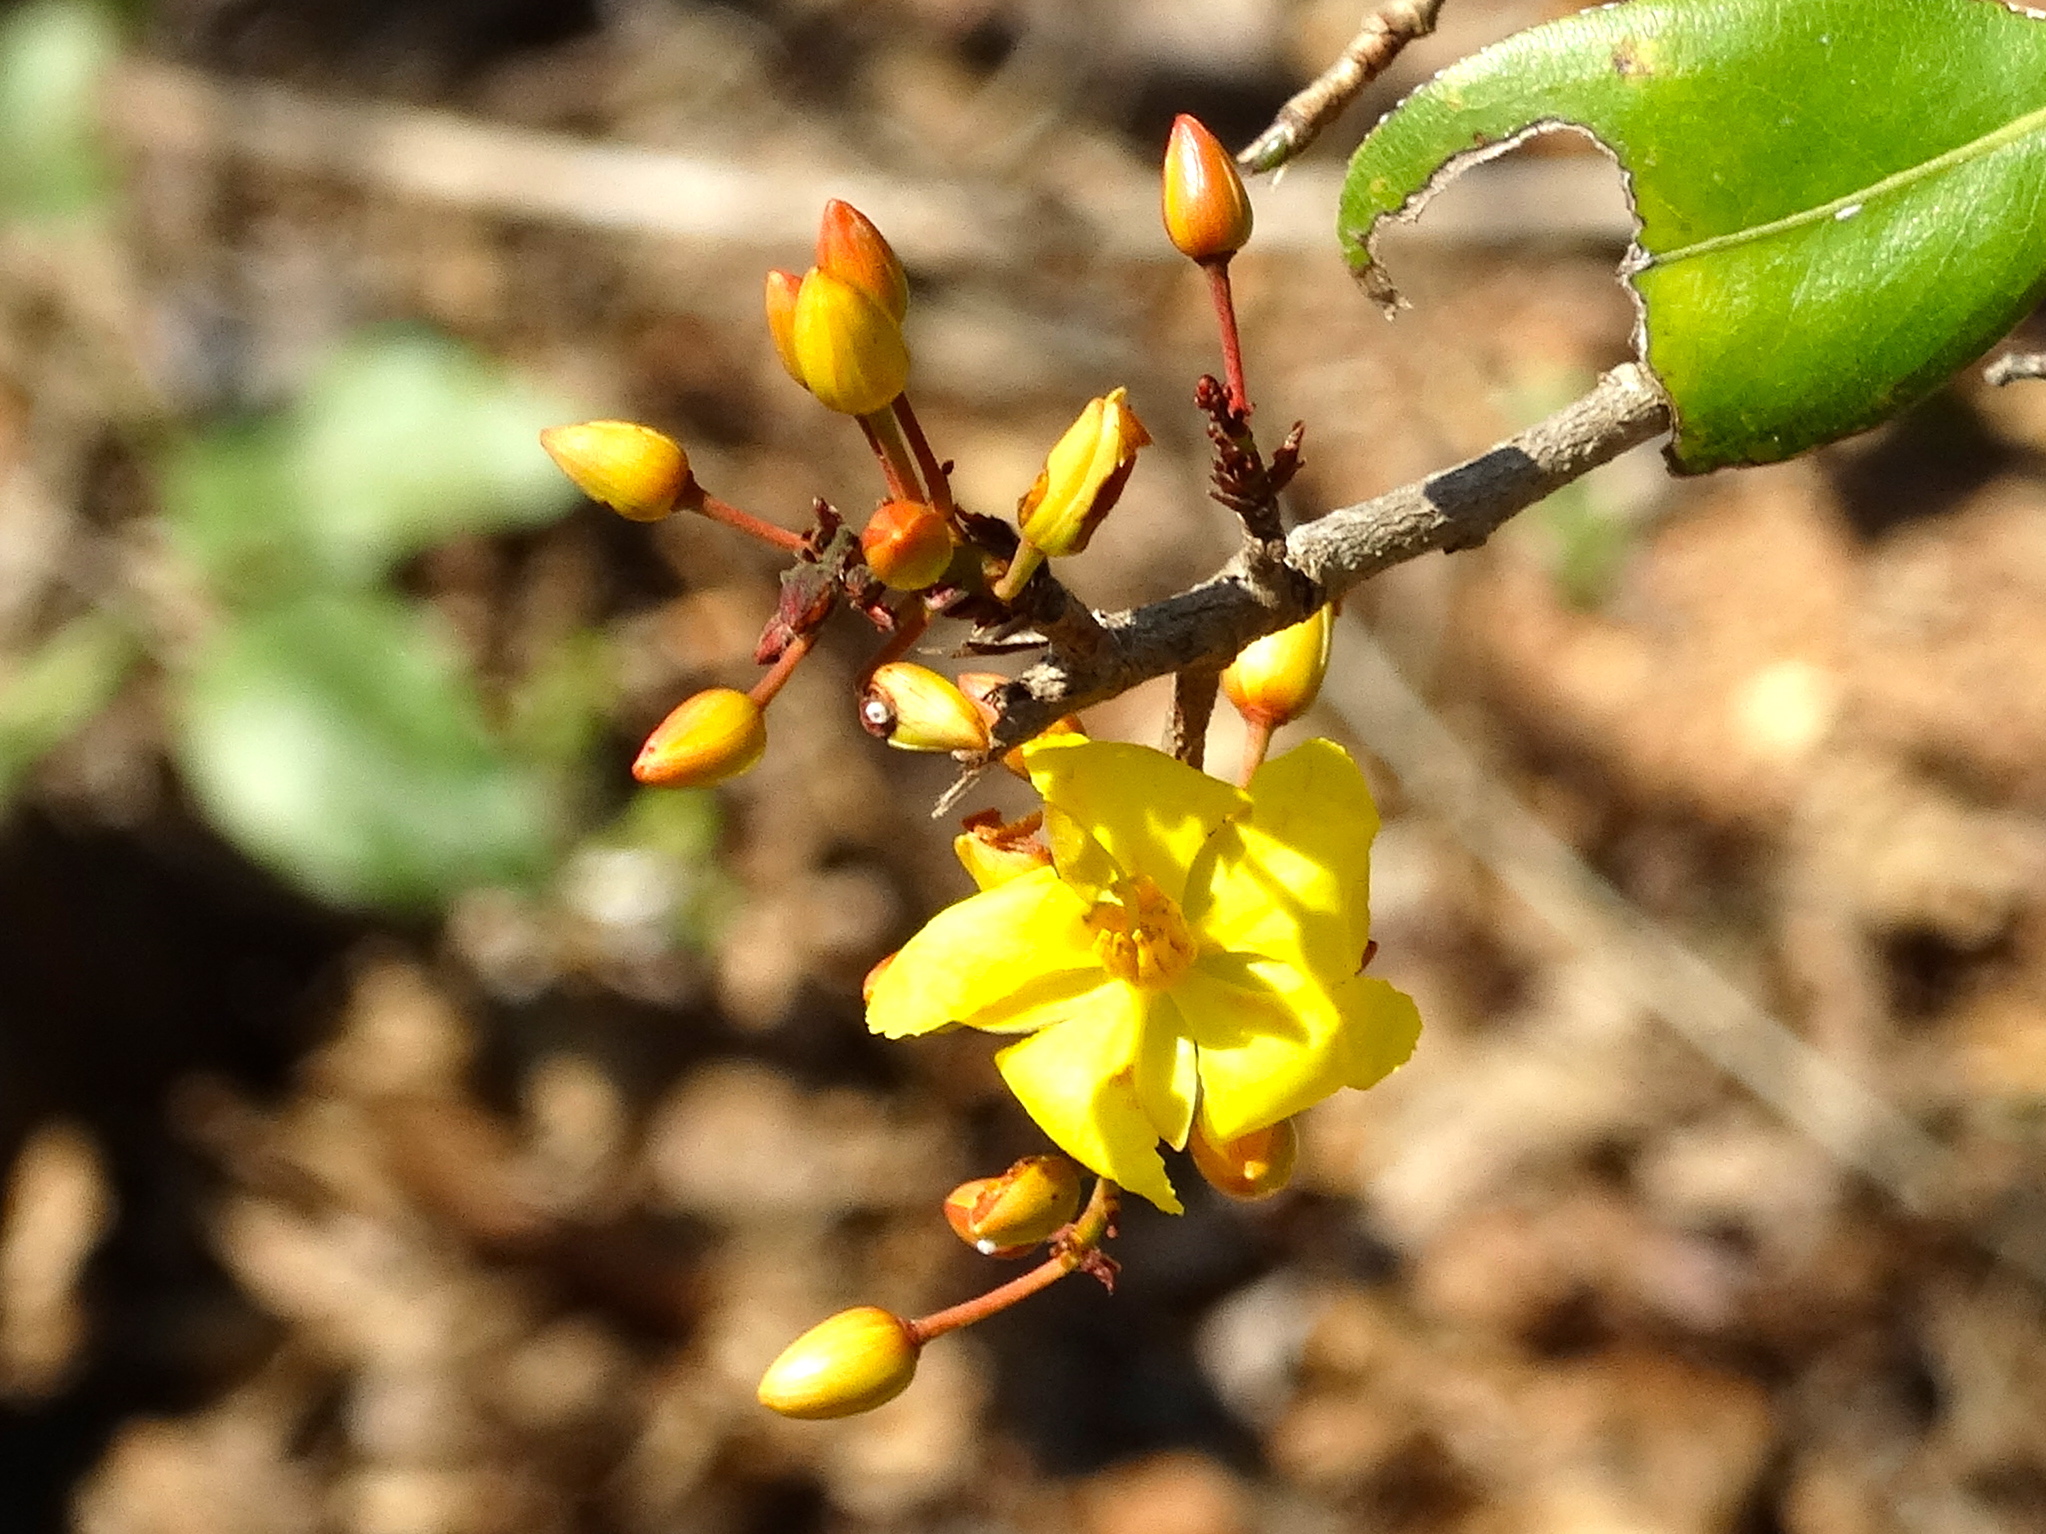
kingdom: Plantae
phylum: Tracheophyta
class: Magnoliopsida
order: Malvales
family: Cochlospermaceae
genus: Cochlospermum
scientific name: Cochlospermum vitifolium
